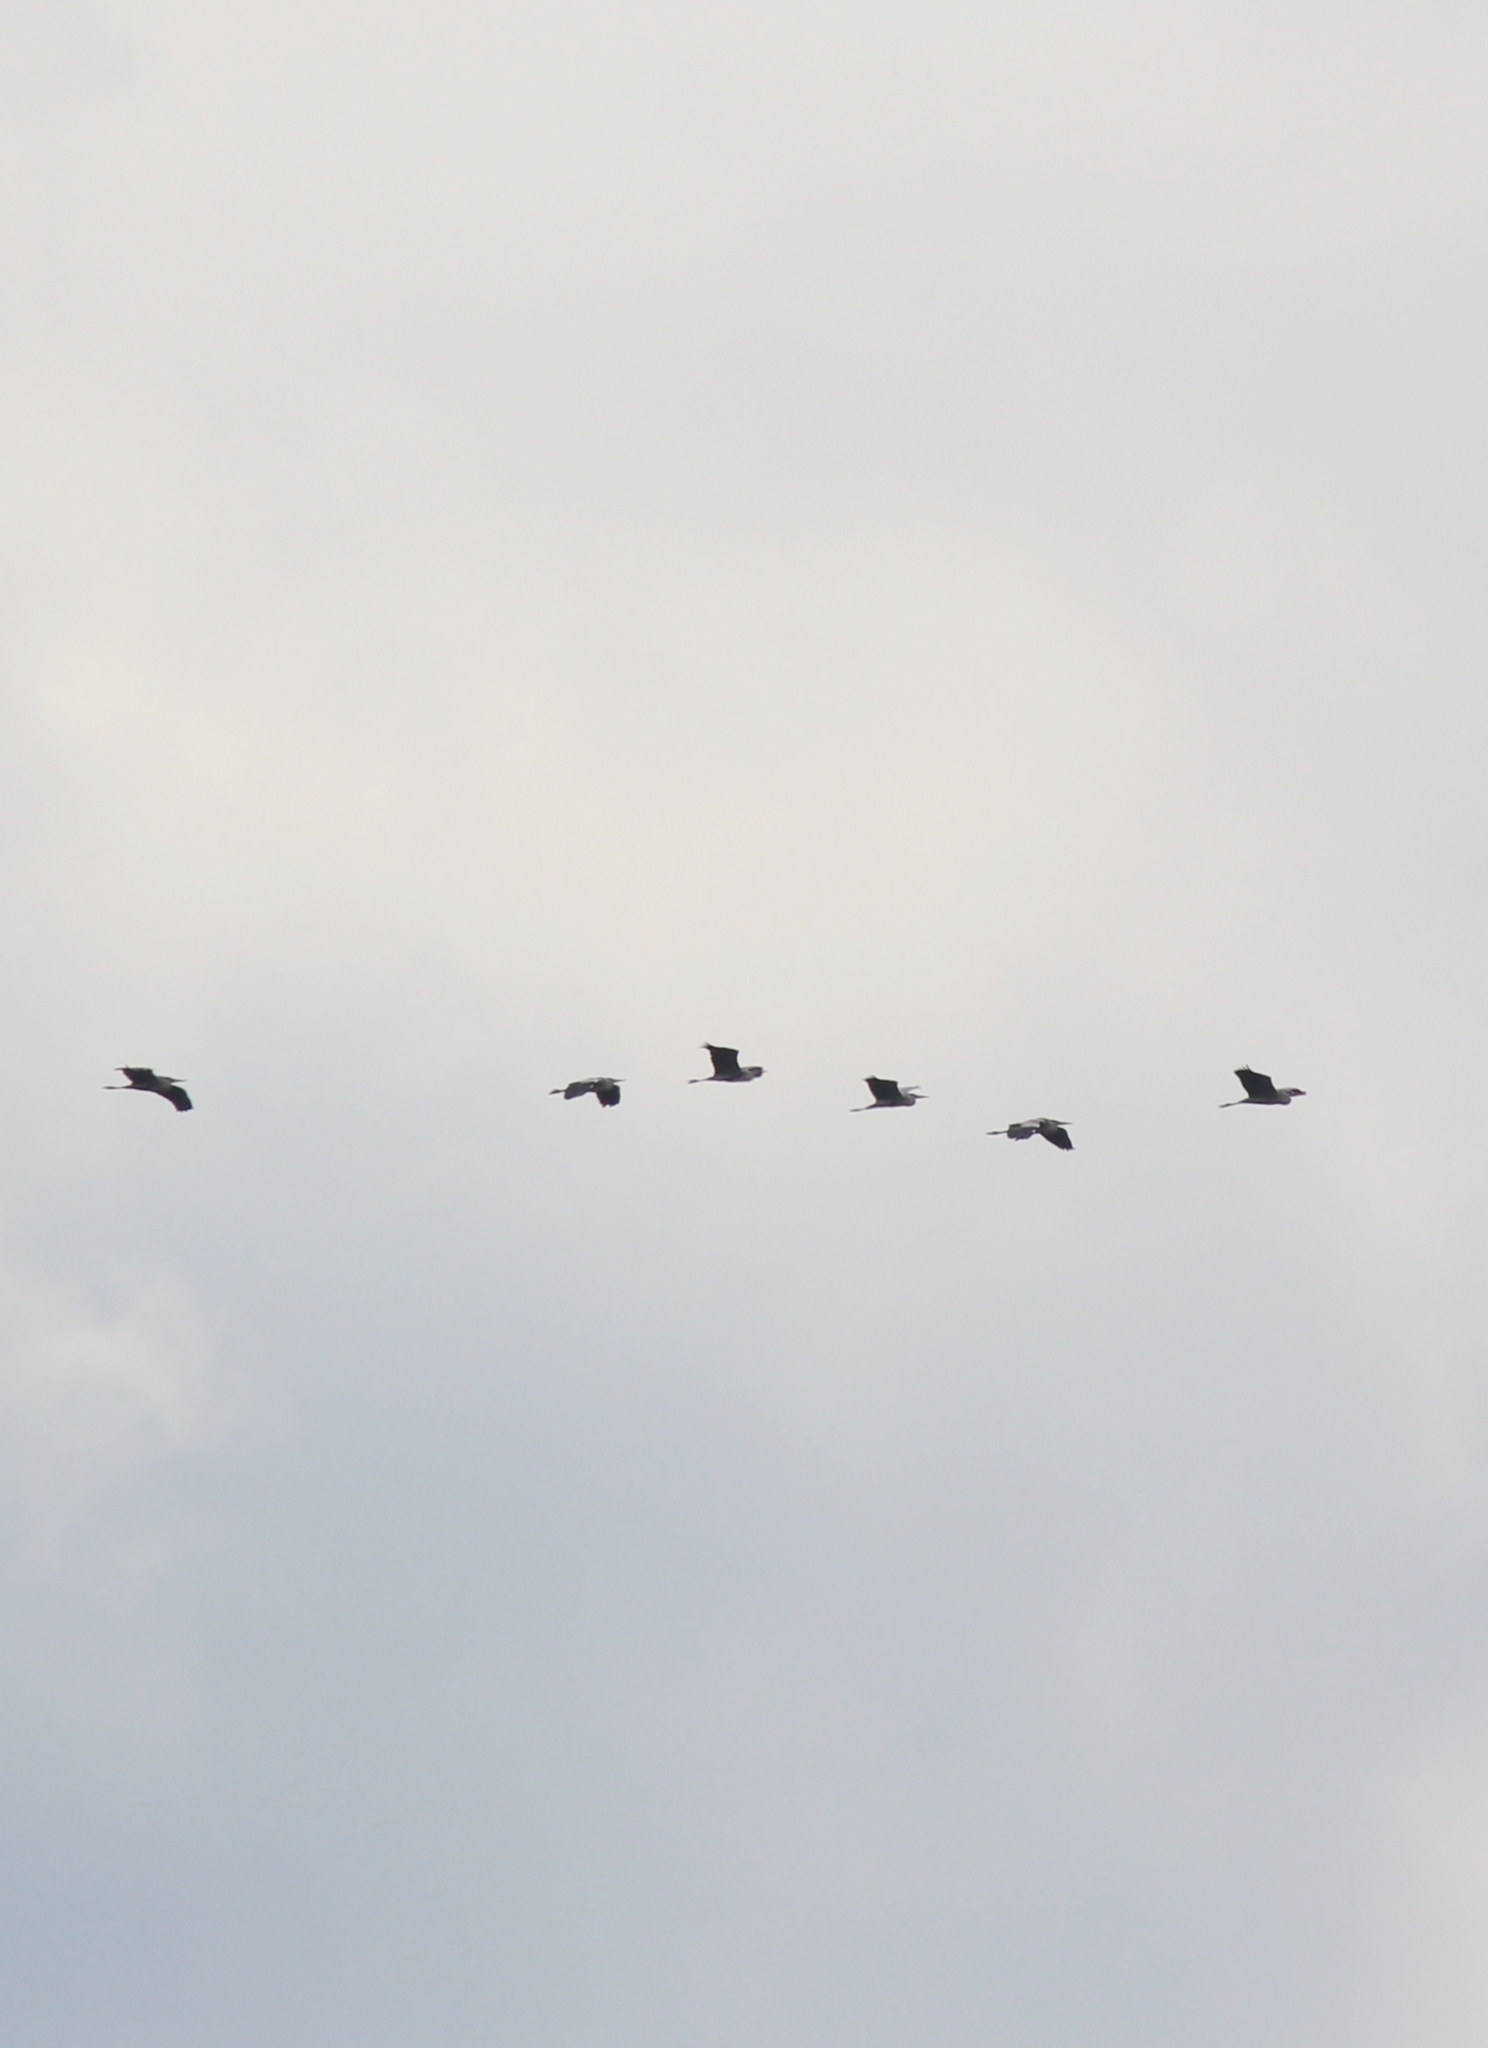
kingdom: Animalia
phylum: Chordata
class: Aves
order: Pelecaniformes
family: Ardeidae
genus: Ardea
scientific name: Ardea cinerea
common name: Grey heron
